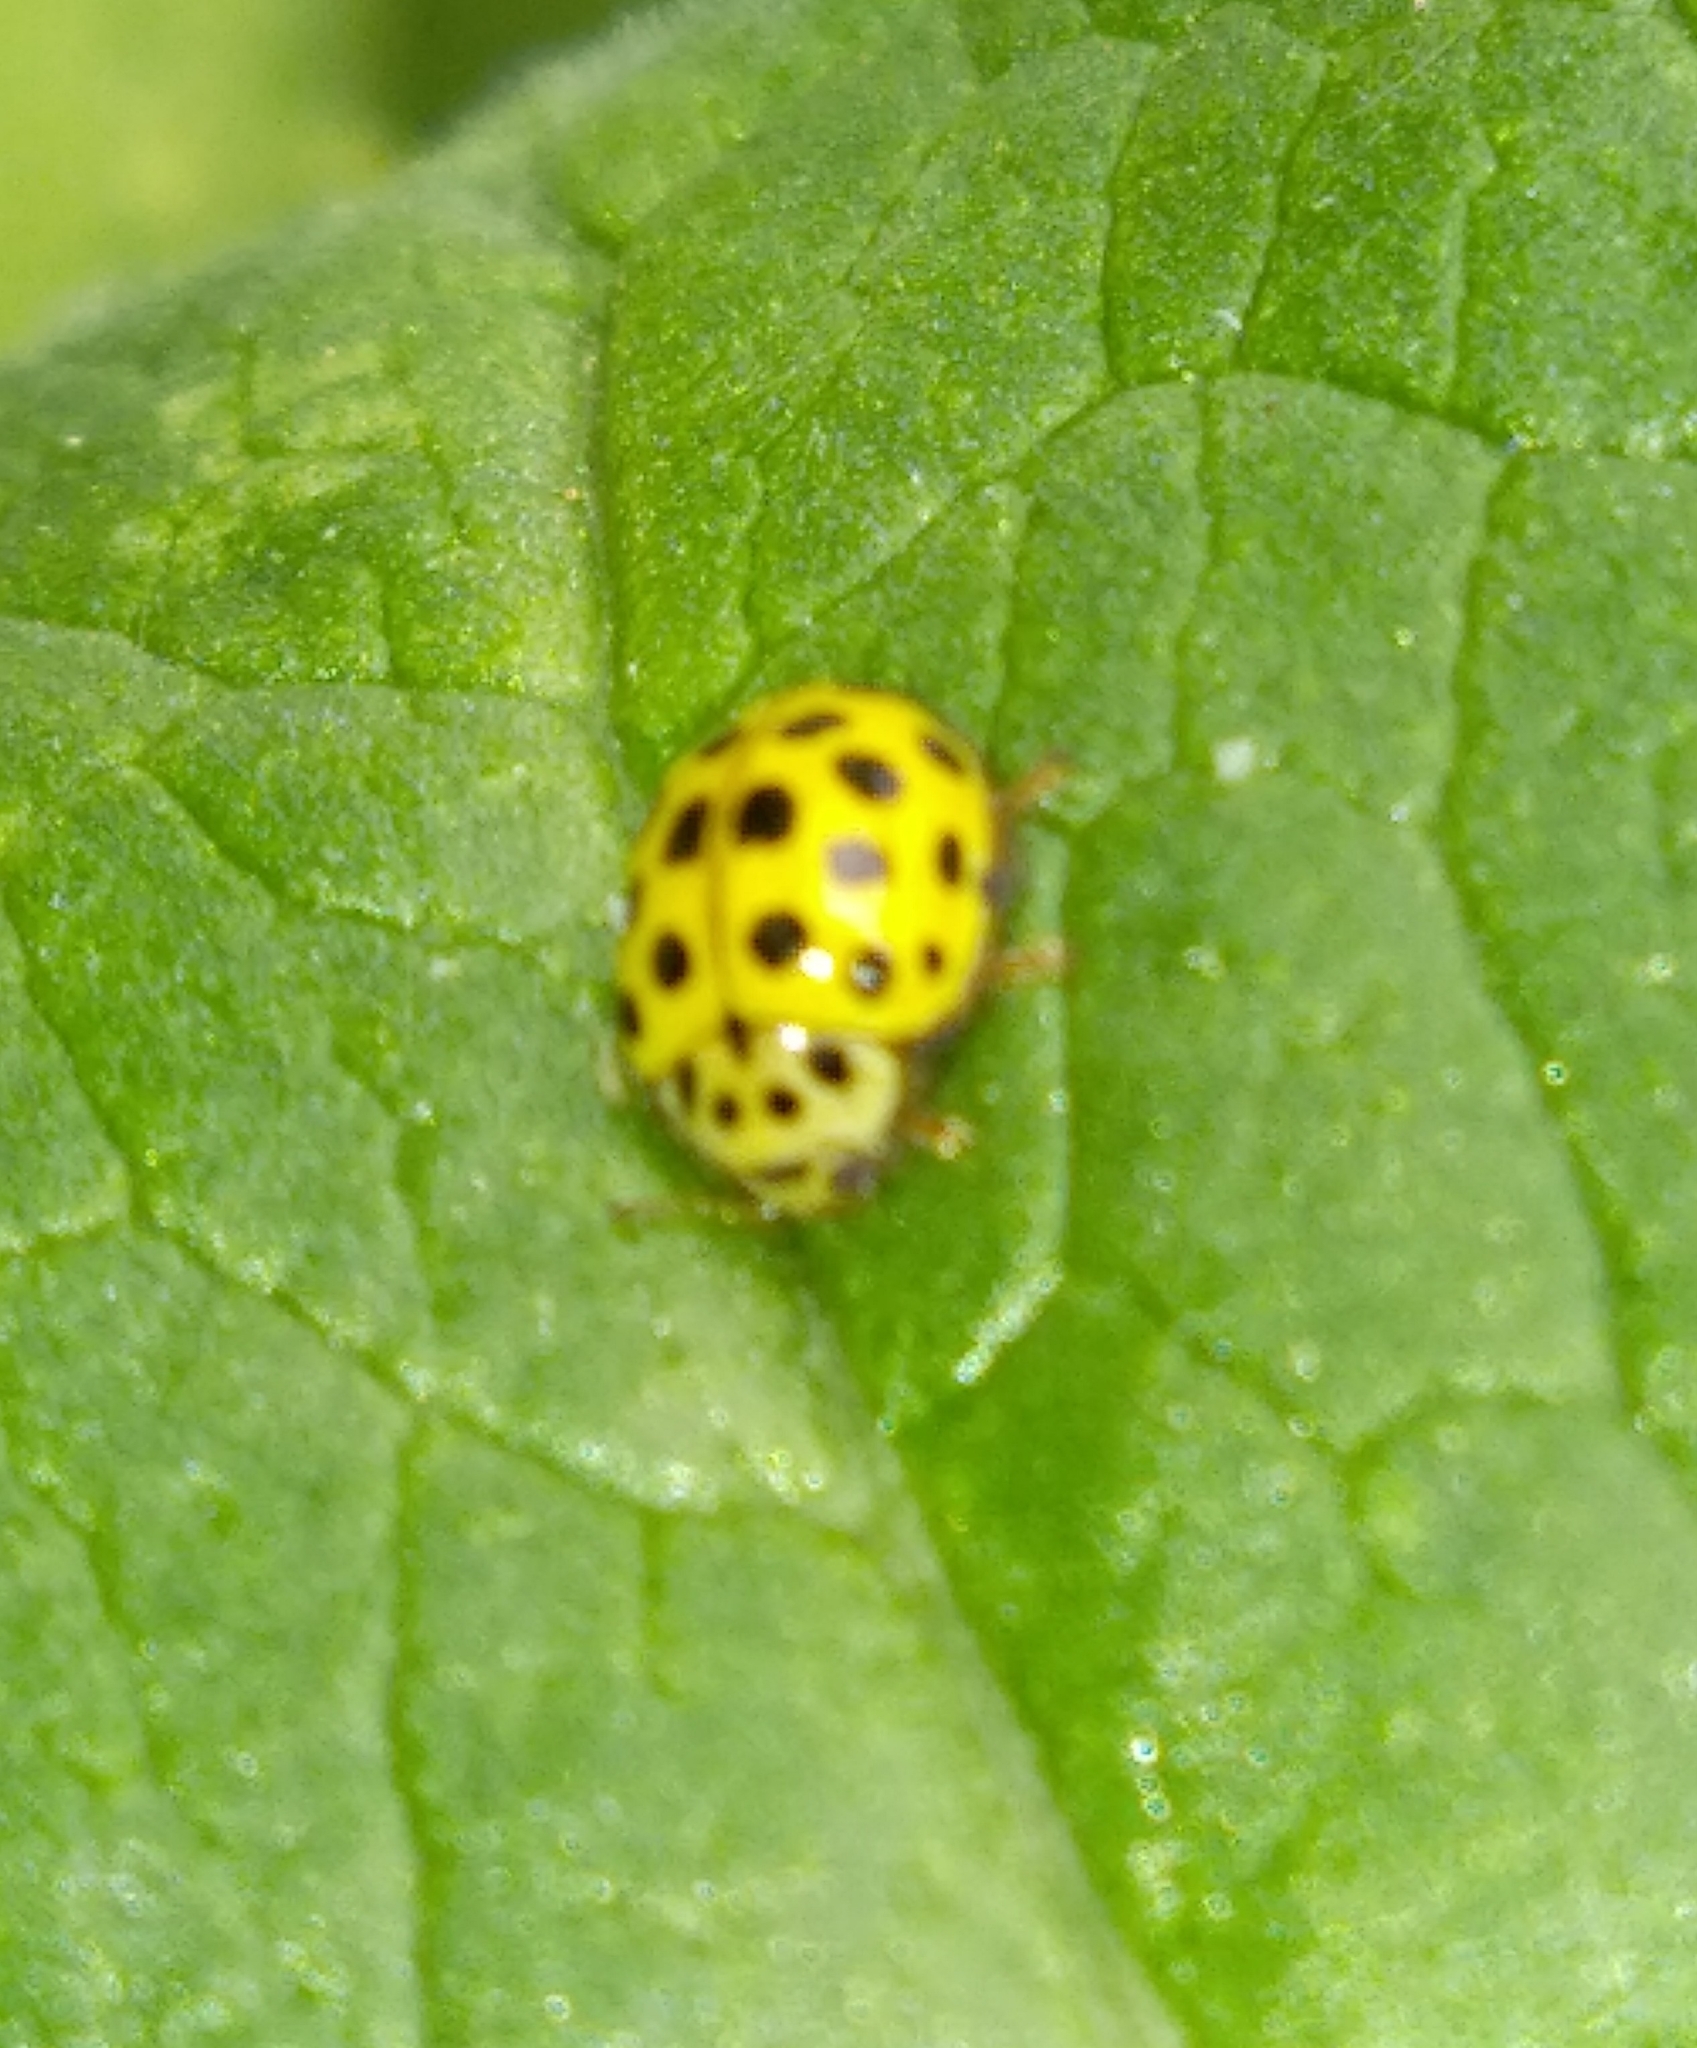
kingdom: Animalia
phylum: Arthropoda
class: Insecta
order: Coleoptera
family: Coccinellidae
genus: Psyllobora
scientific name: Psyllobora vigintiduopunctata
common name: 22-spot ladybird
